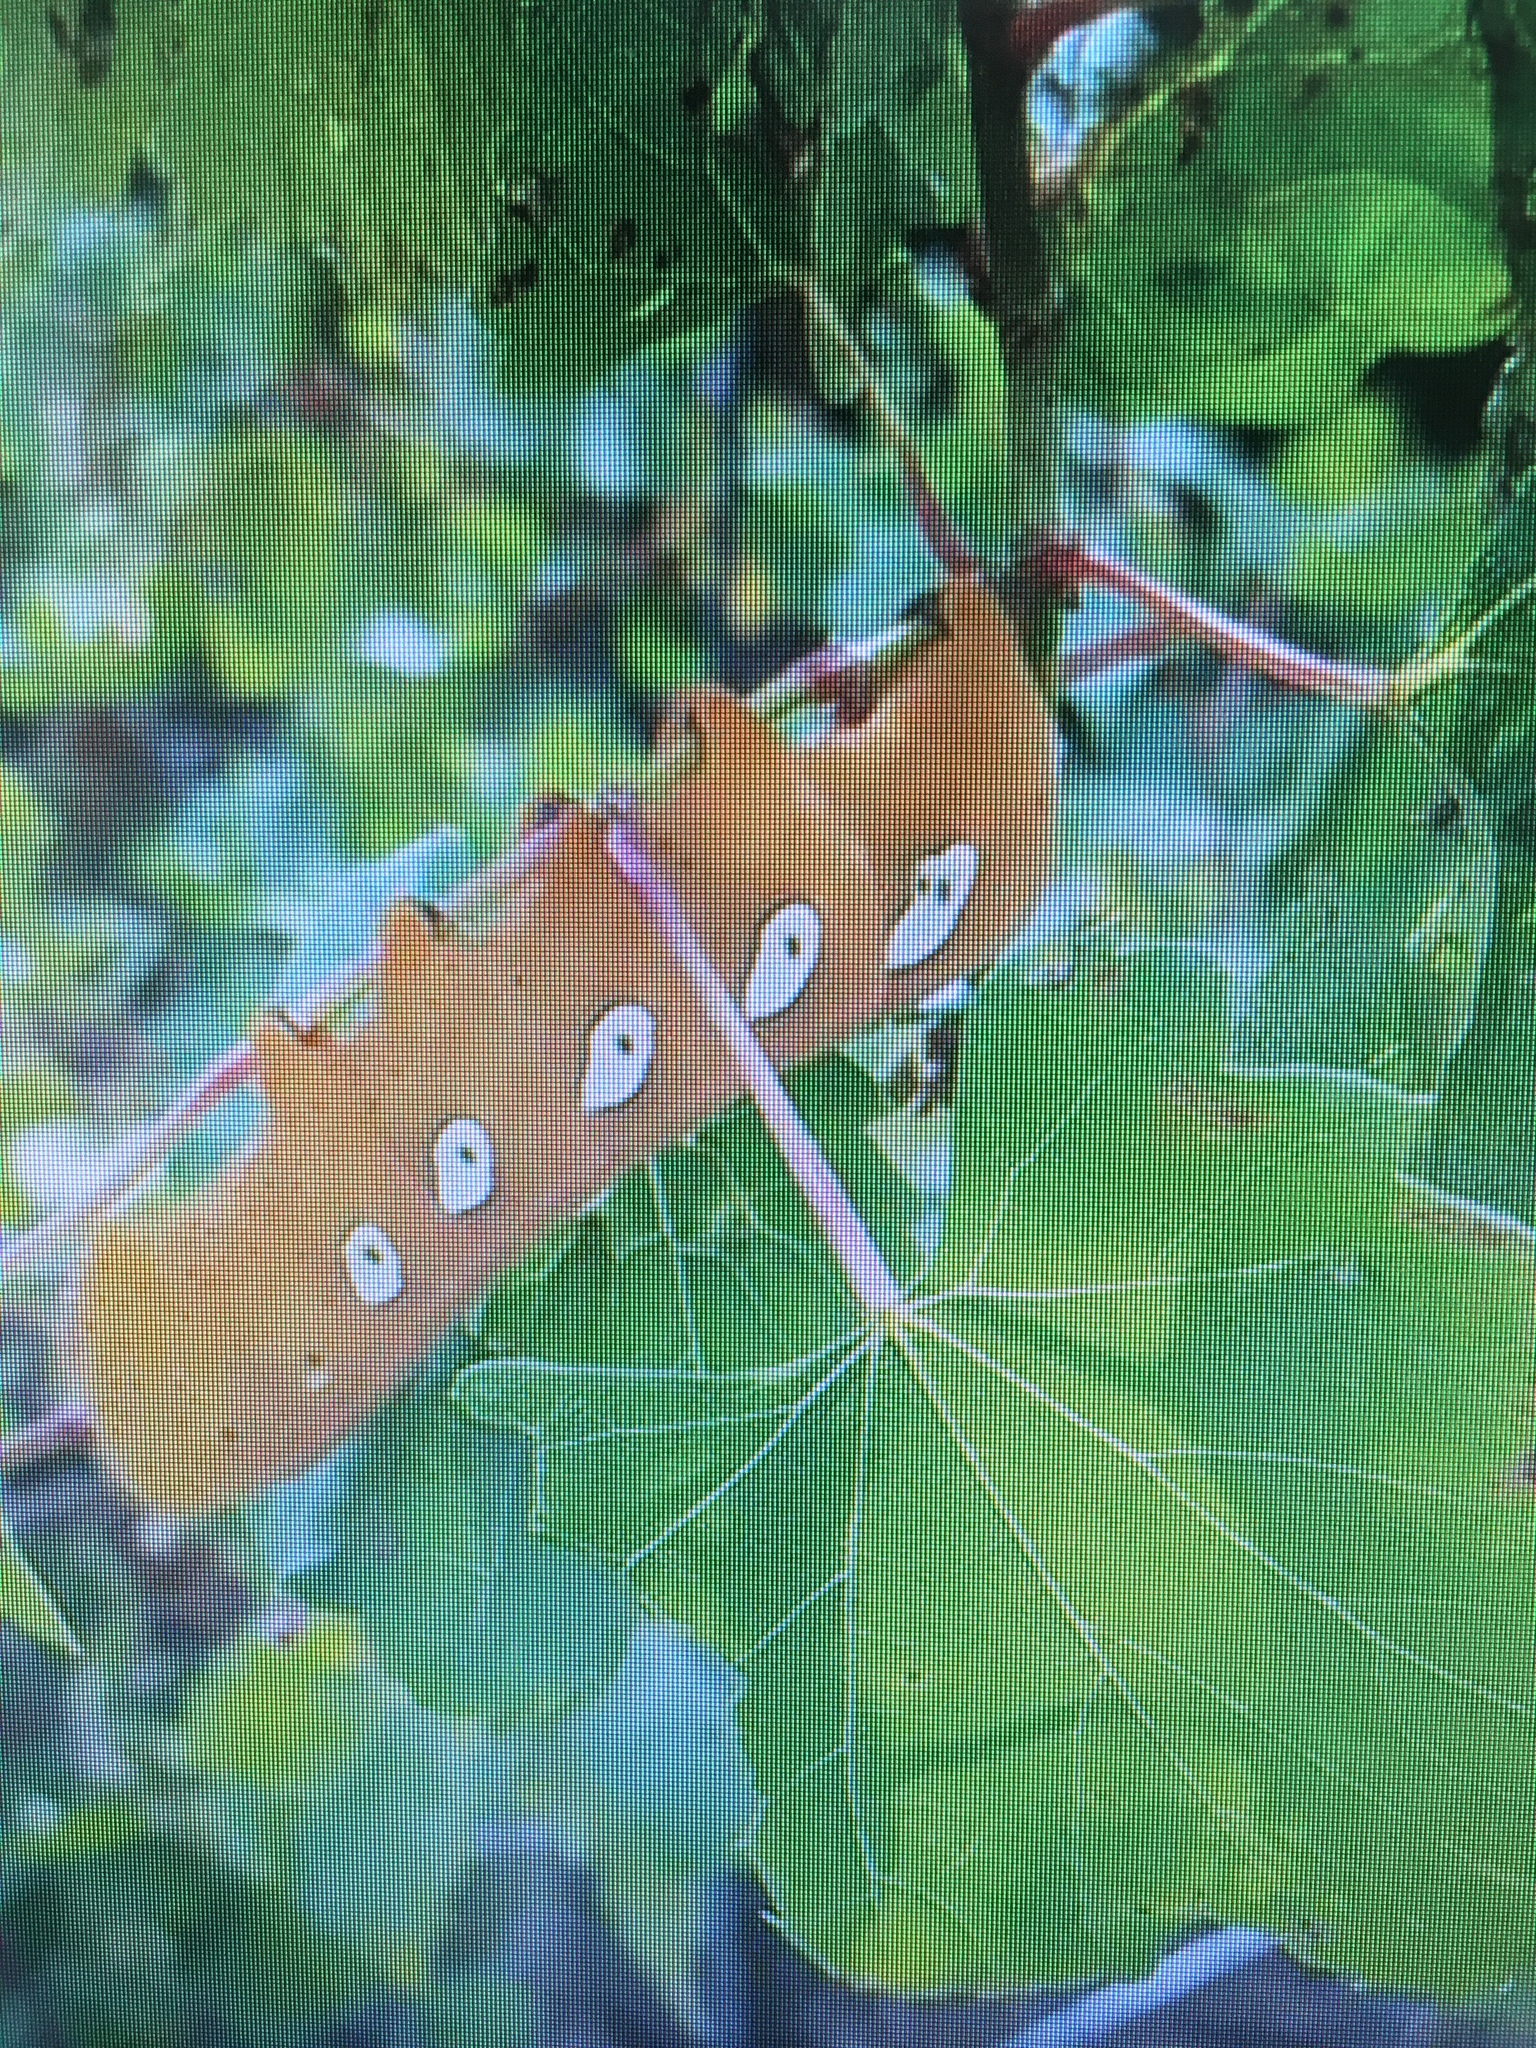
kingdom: Animalia
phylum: Arthropoda
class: Insecta
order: Lepidoptera
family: Sphingidae
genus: Eumorpha
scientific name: Eumorpha pandorus
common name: Pandora sphinx
